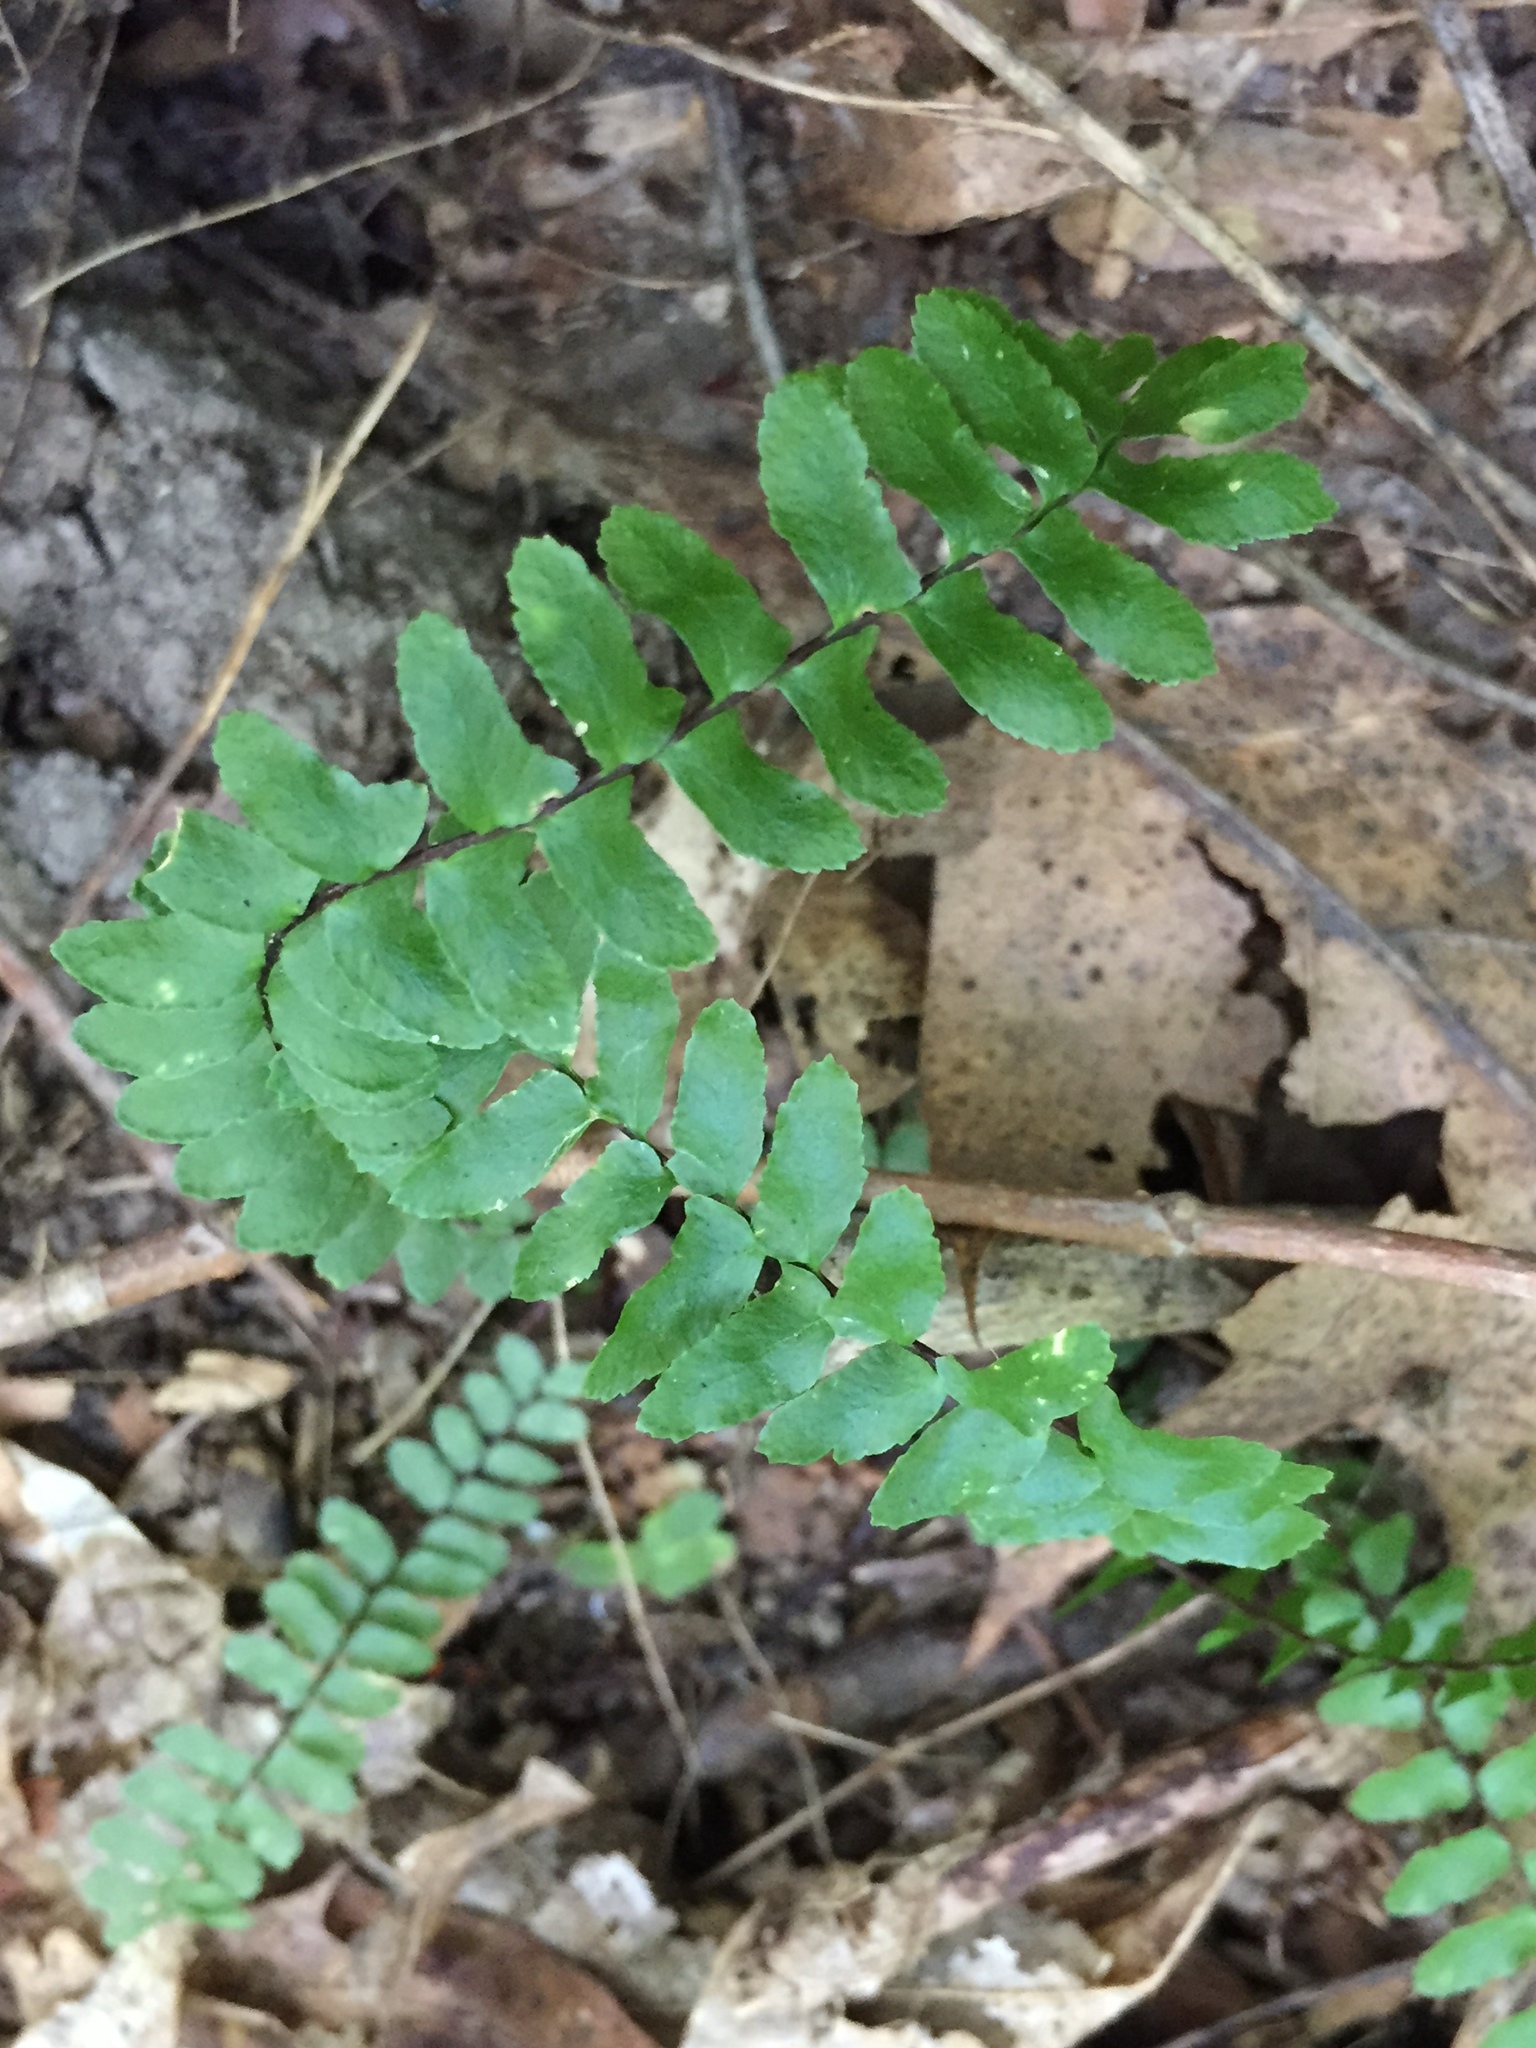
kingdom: Plantae
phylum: Tracheophyta
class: Polypodiopsida
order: Polypodiales
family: Aspleniaceae
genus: Asplenium
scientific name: Asplenium platyneuron
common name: Ebony spleenwort
